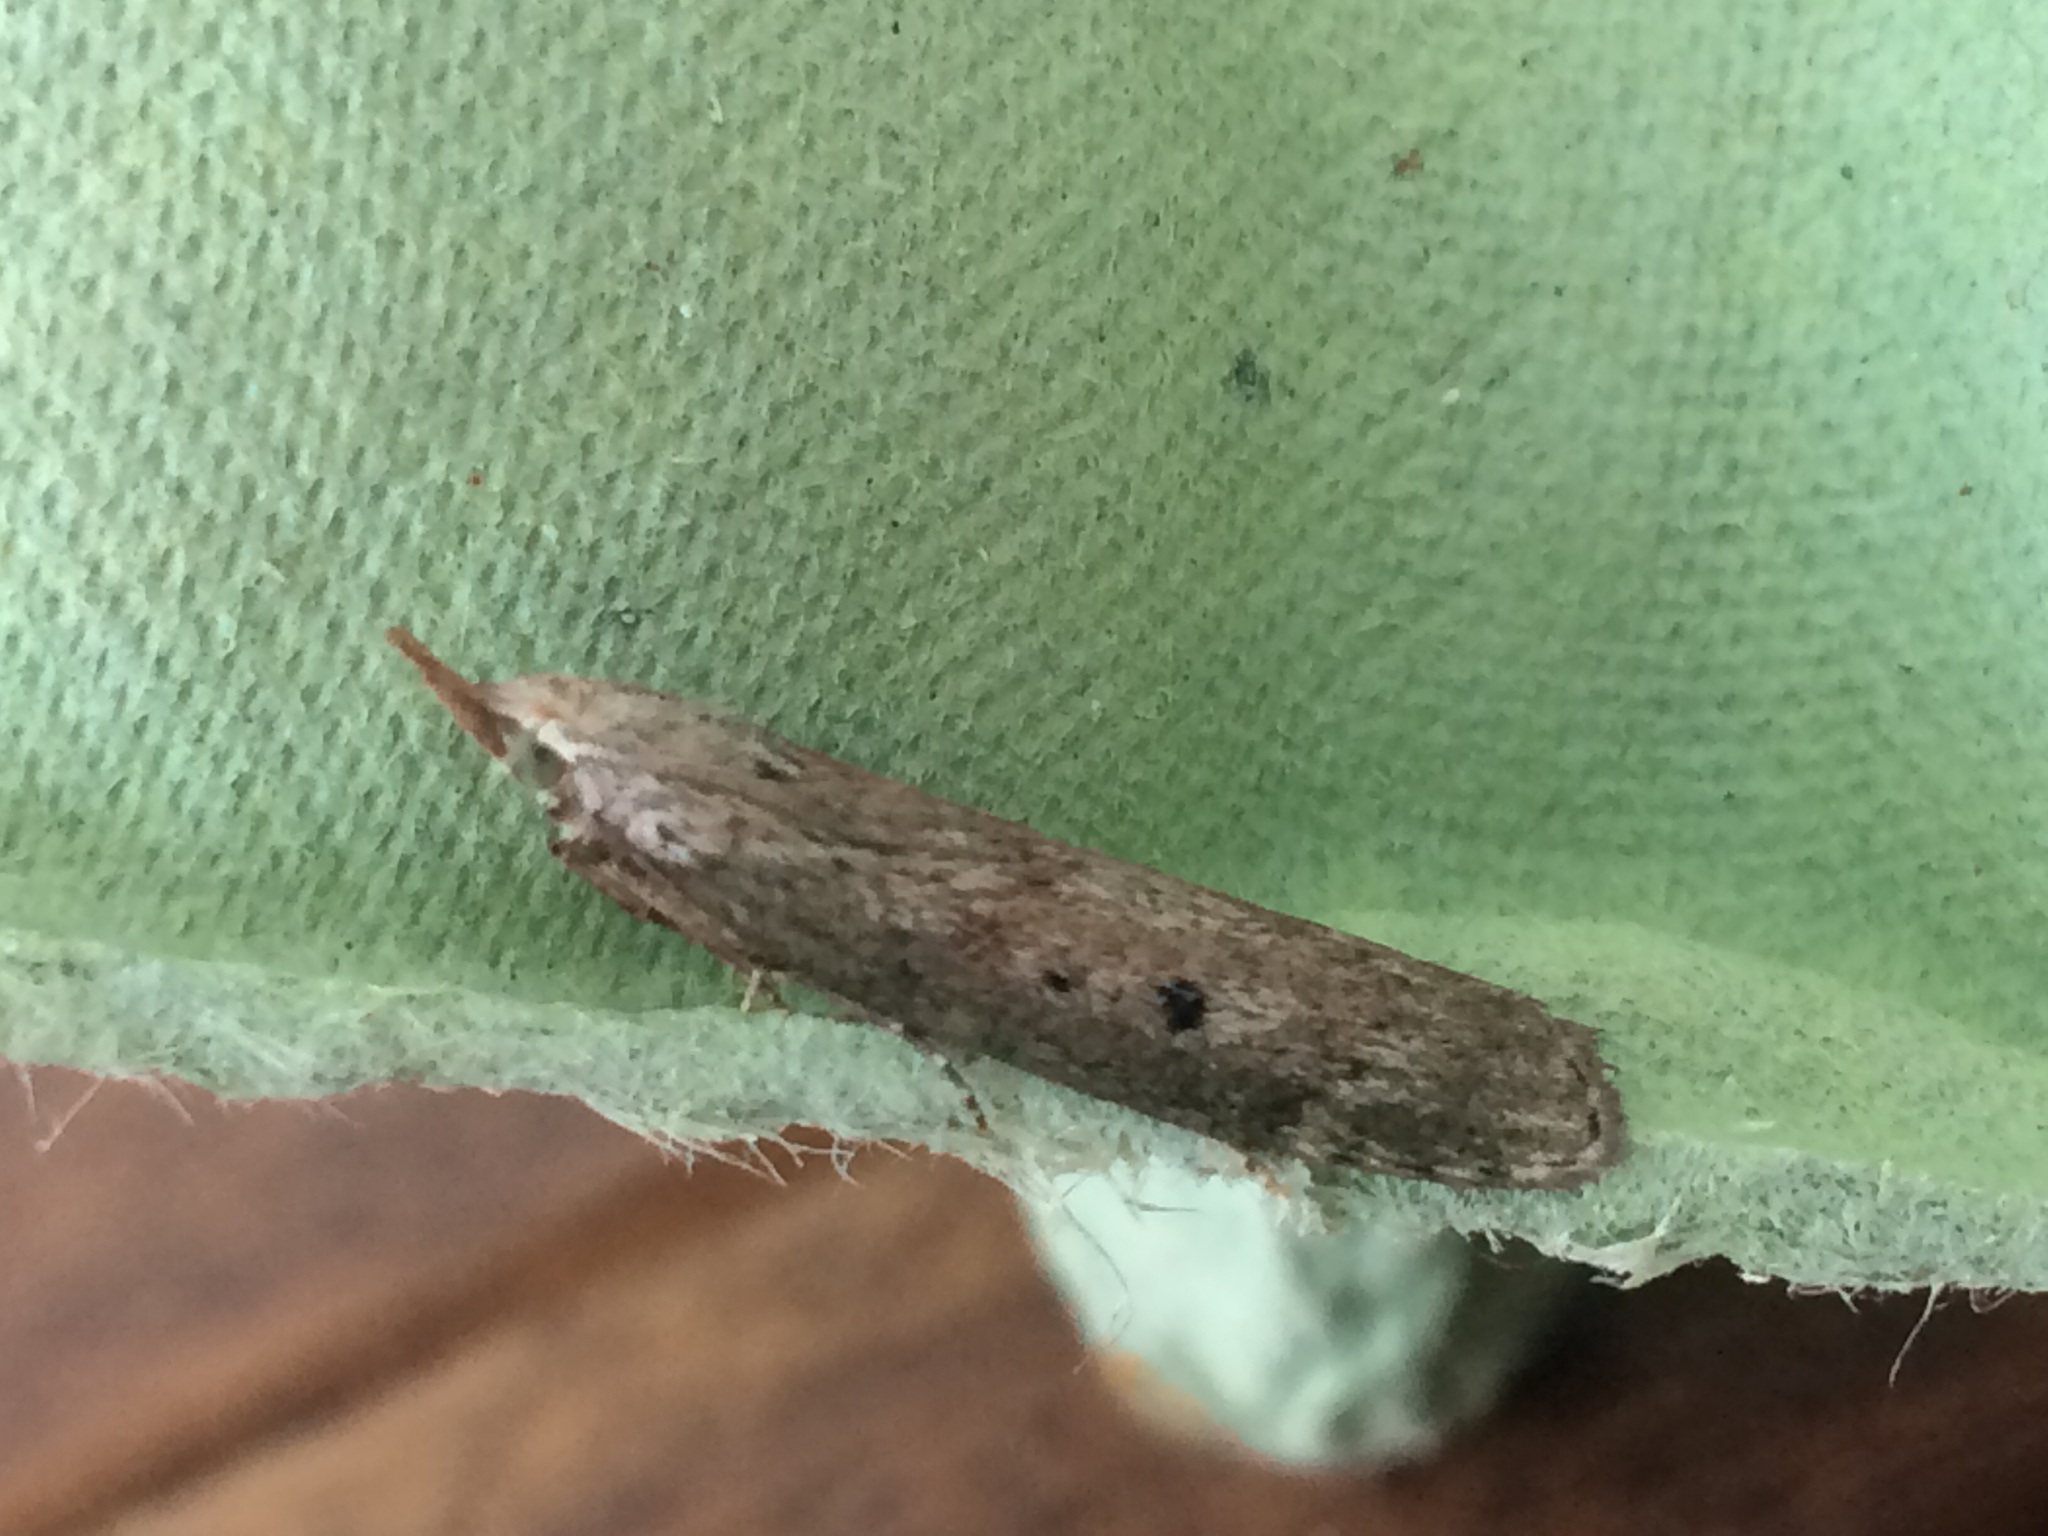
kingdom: Animalia
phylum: Arthropoda
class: Insecta
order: Lepidoptera
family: Pyralidae
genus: Aphomia
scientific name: Aphomia sociella
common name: Bee moth
